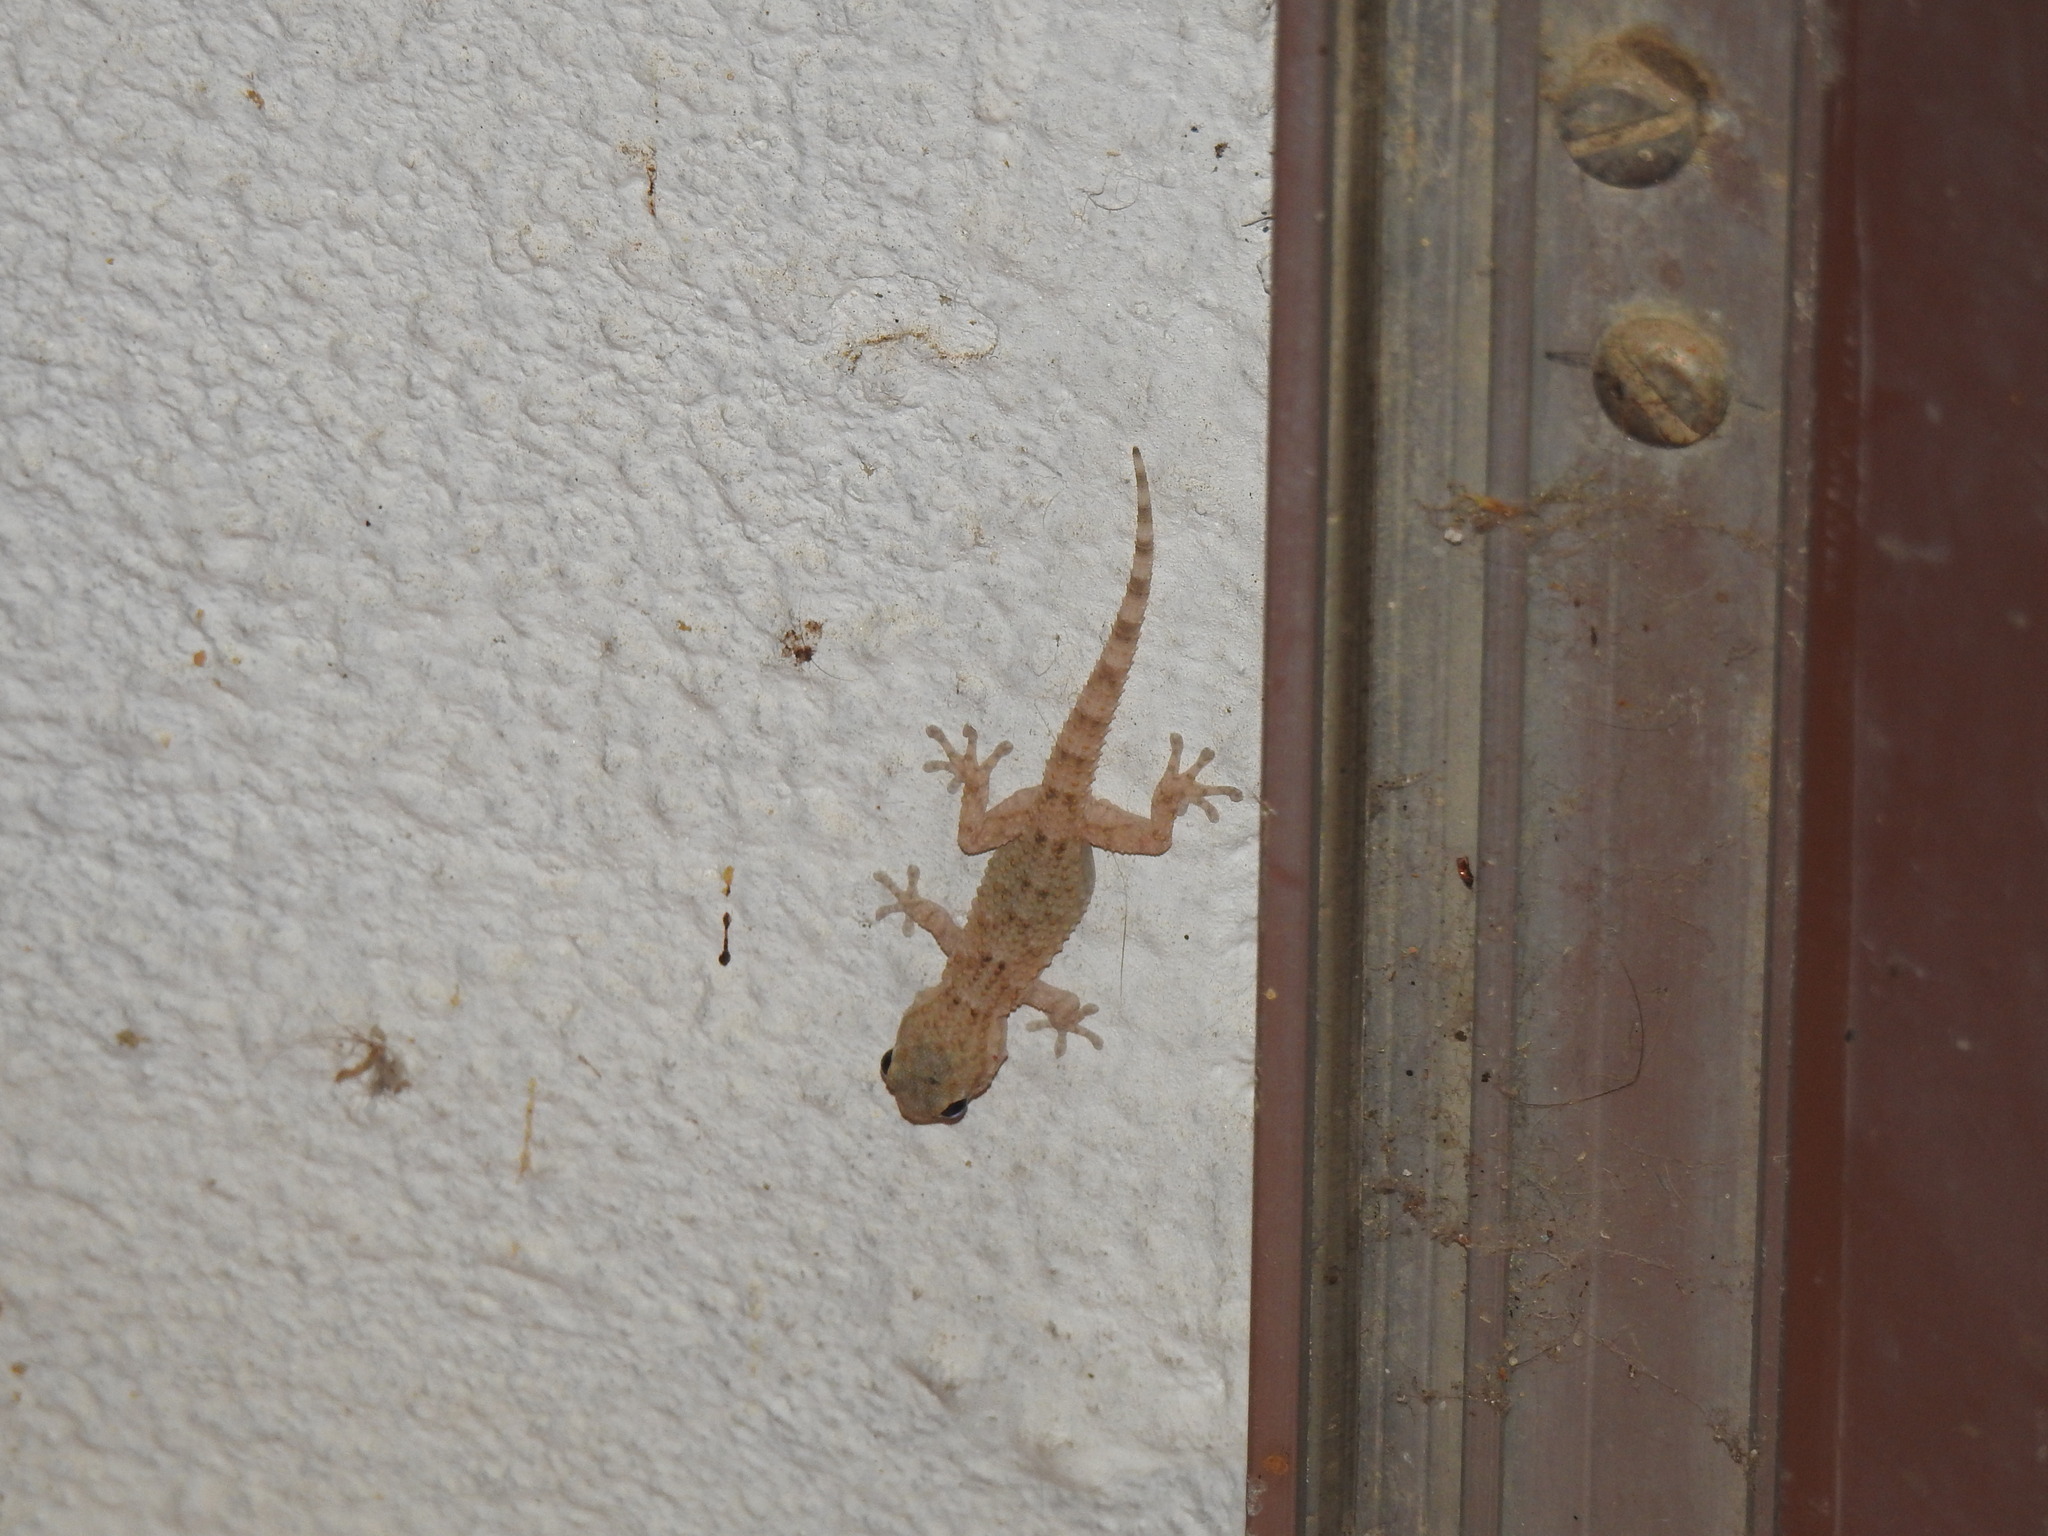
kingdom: Animalia
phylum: Chordata
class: Squamata
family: Phyllodactylidae
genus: Tarentola
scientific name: Tarentola mauritanica
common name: Moorish gecko
